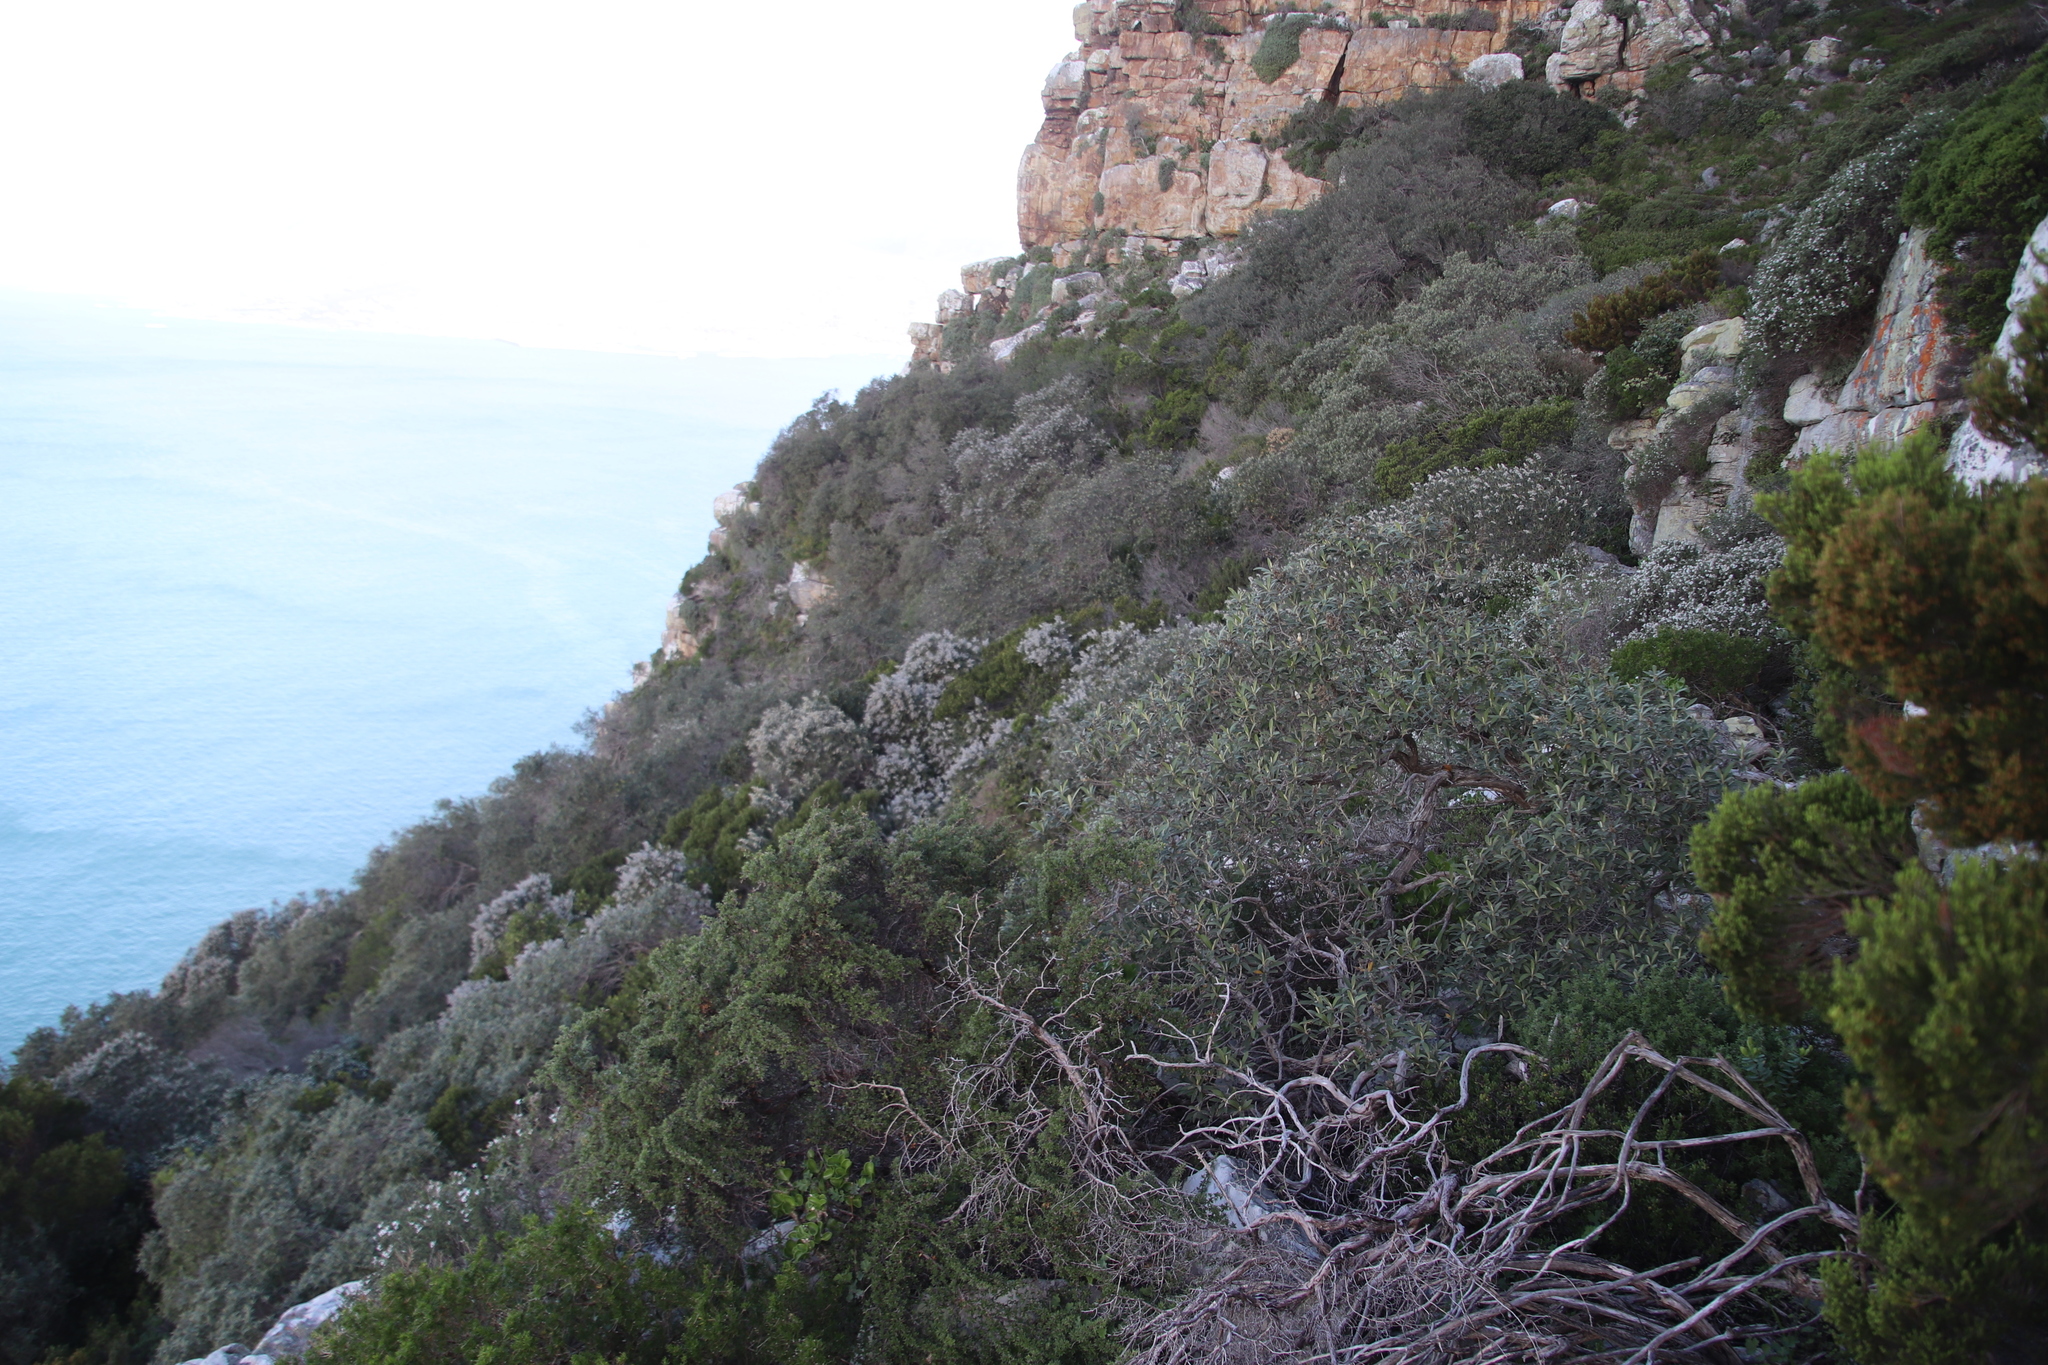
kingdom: Plantae
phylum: Tracheophyta
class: Magnoliopsida
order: Asterales
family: Asteraceae
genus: Tarchonanthus
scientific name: Tarchonanthus littoralis
